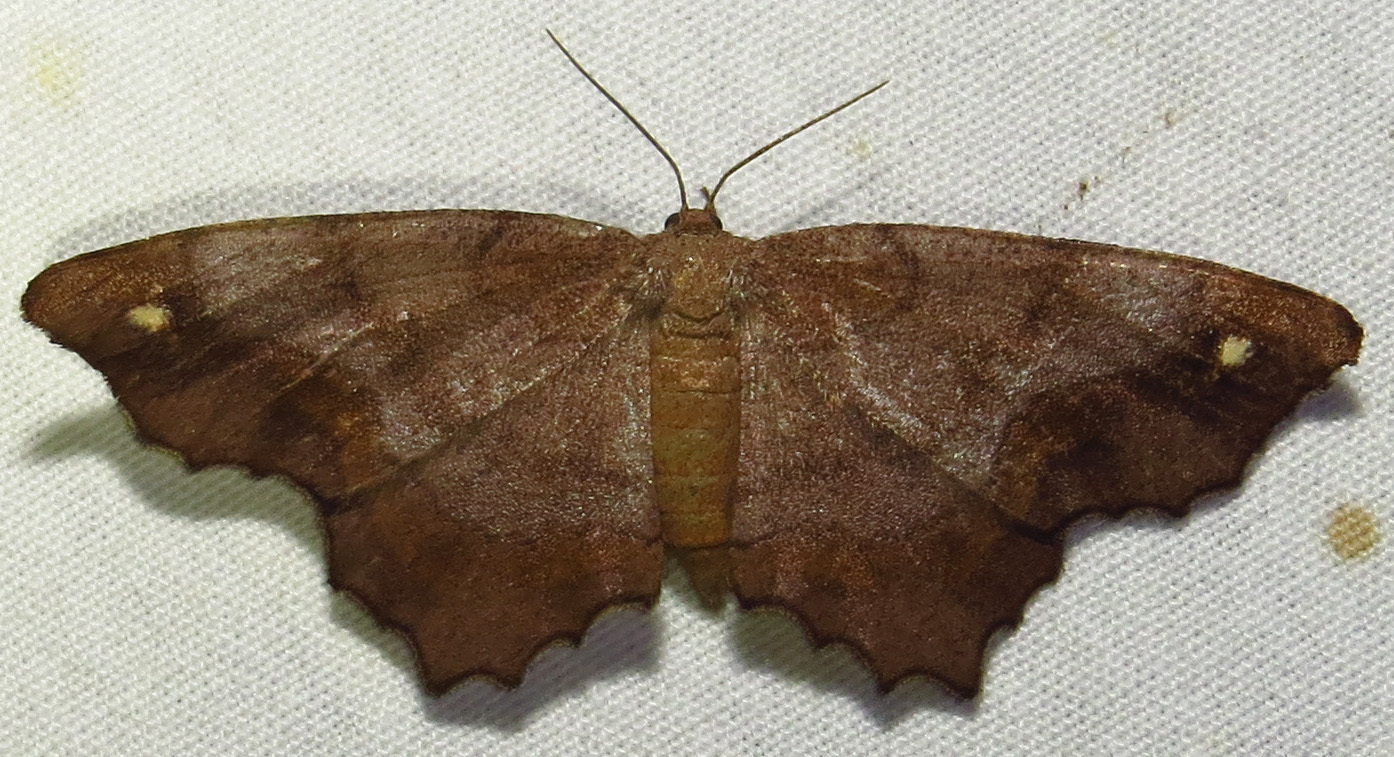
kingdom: Animalia
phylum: Arthropoda
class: Insecta
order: Lepidoptera
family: Geometridae
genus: Hypagyrtis
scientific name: Hypagyrtis unipunctata
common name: One-spotted variant
